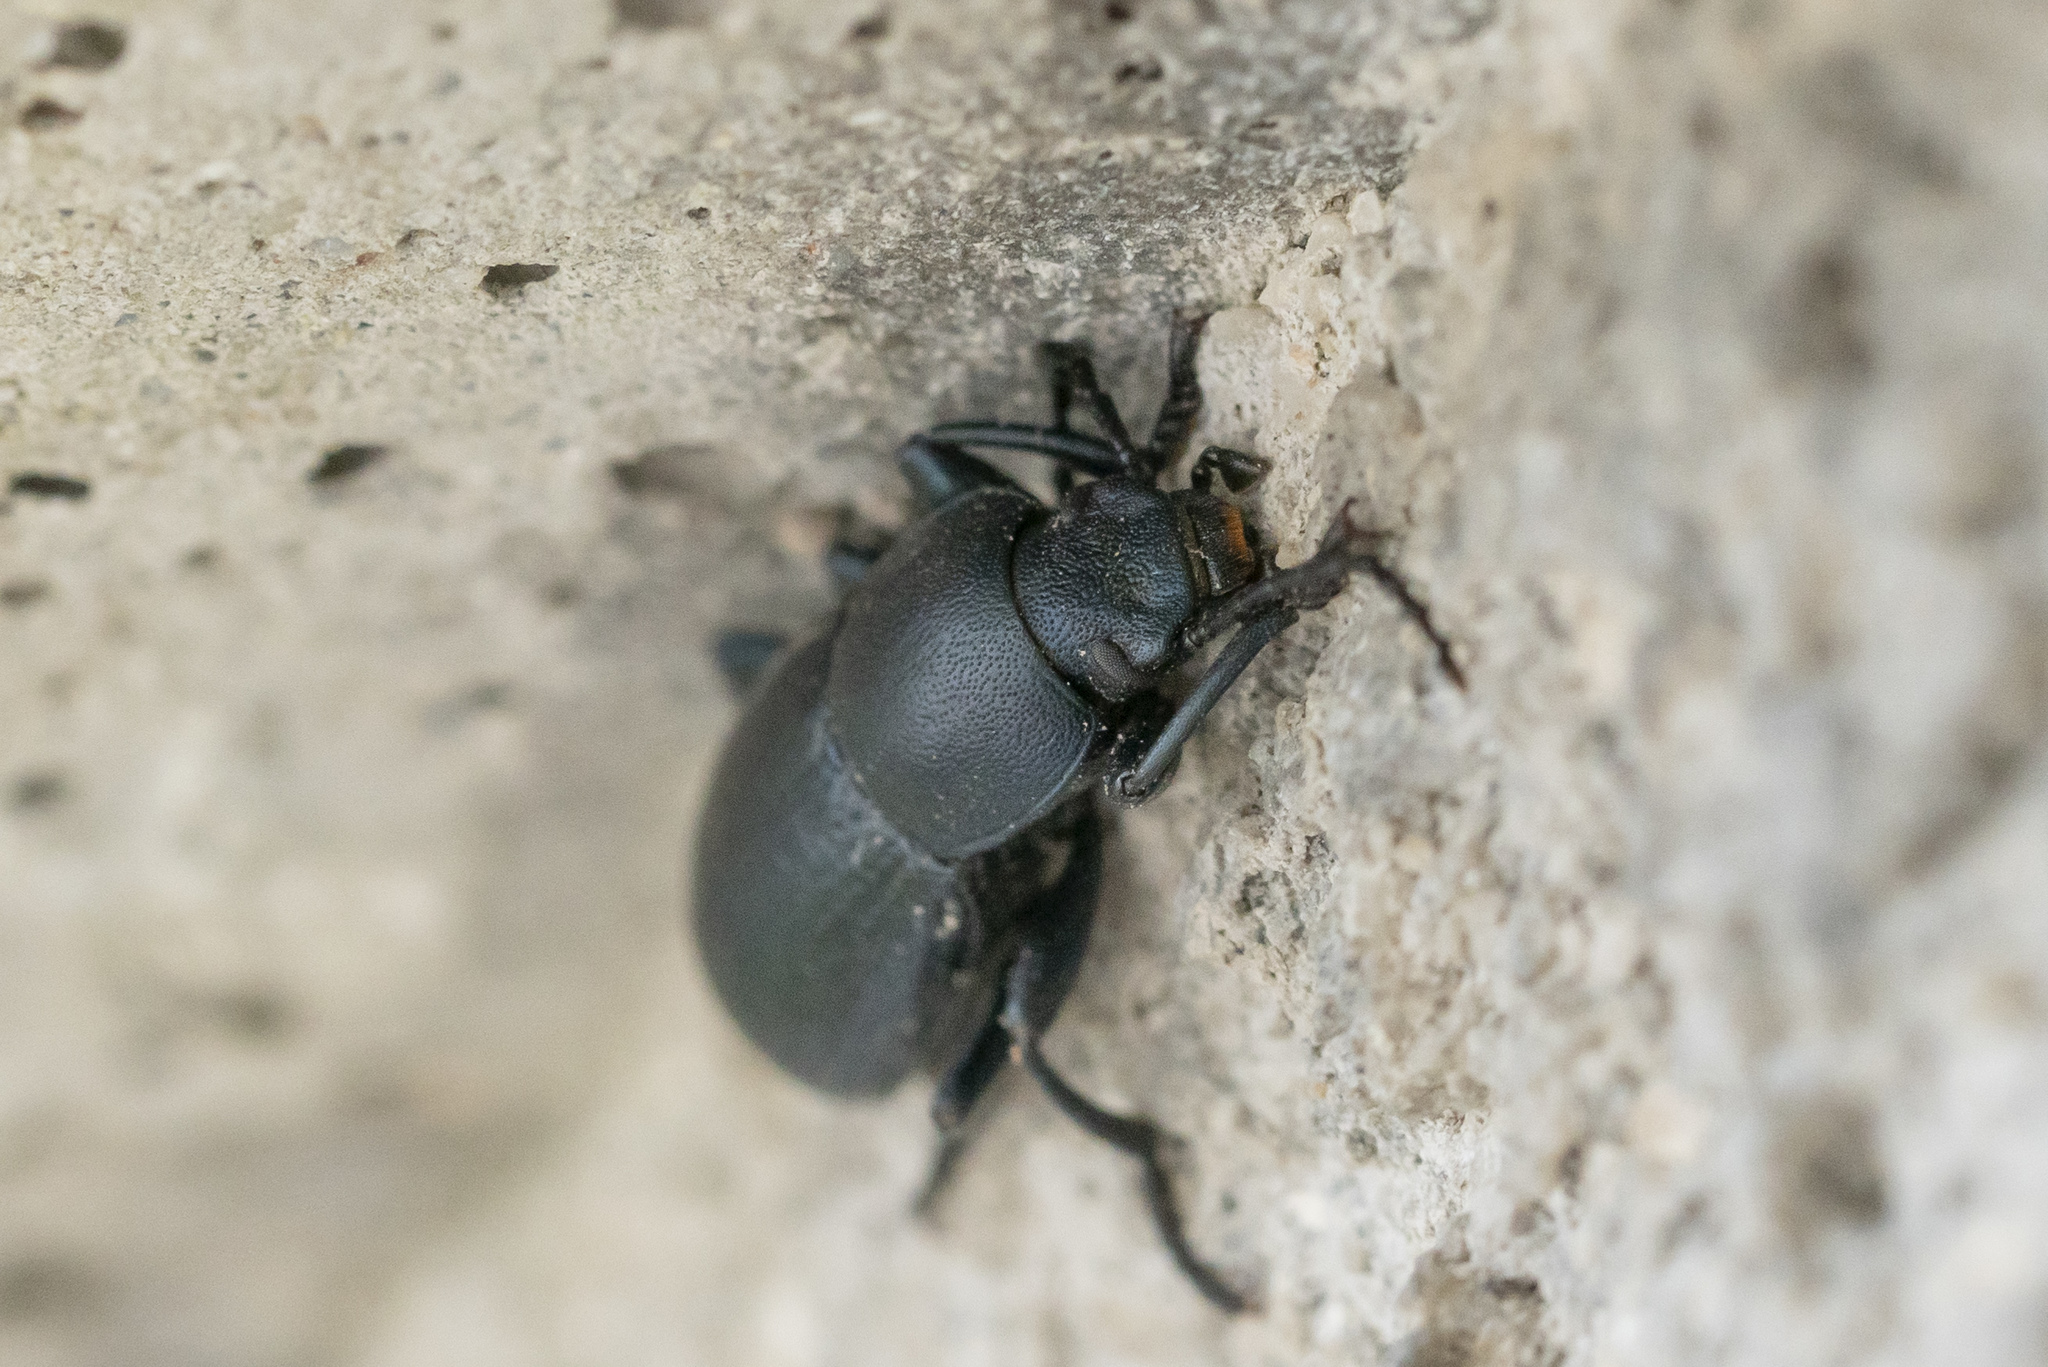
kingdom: Animalia
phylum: Arthropoda
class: Insecta
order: Coleoptera
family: Tenebrionidae
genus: Raiboscelis
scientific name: Raiboscelis coelestinus
